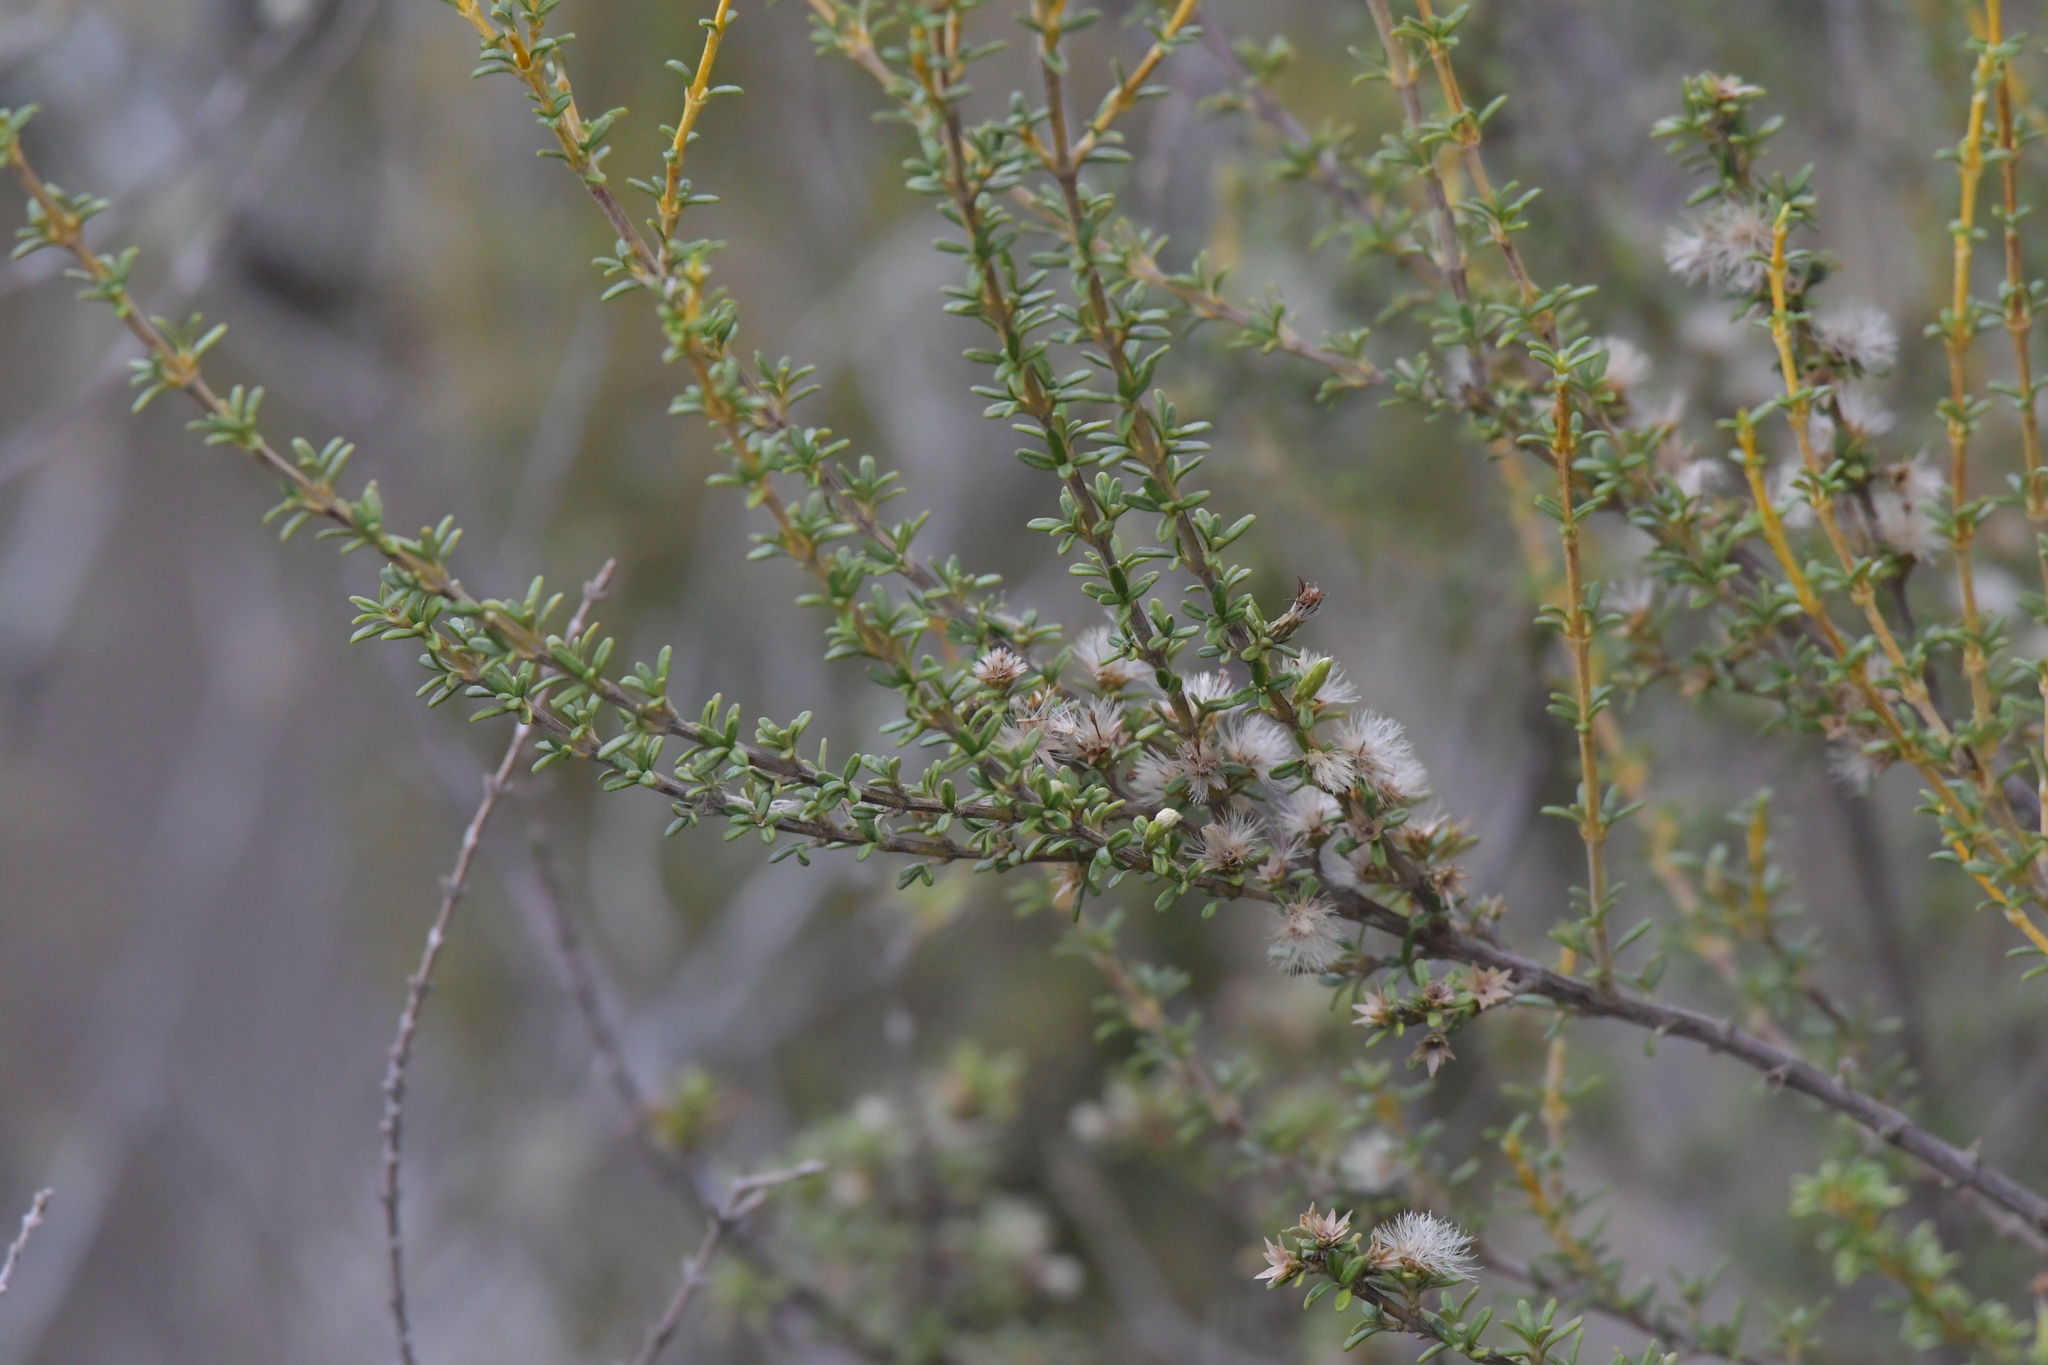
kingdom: Plantae
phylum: Tracheophyta
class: Magnoliopsida
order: Asterales
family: Asteraceae
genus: Olearia
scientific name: Olearia solandri
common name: Coastal daisybush
